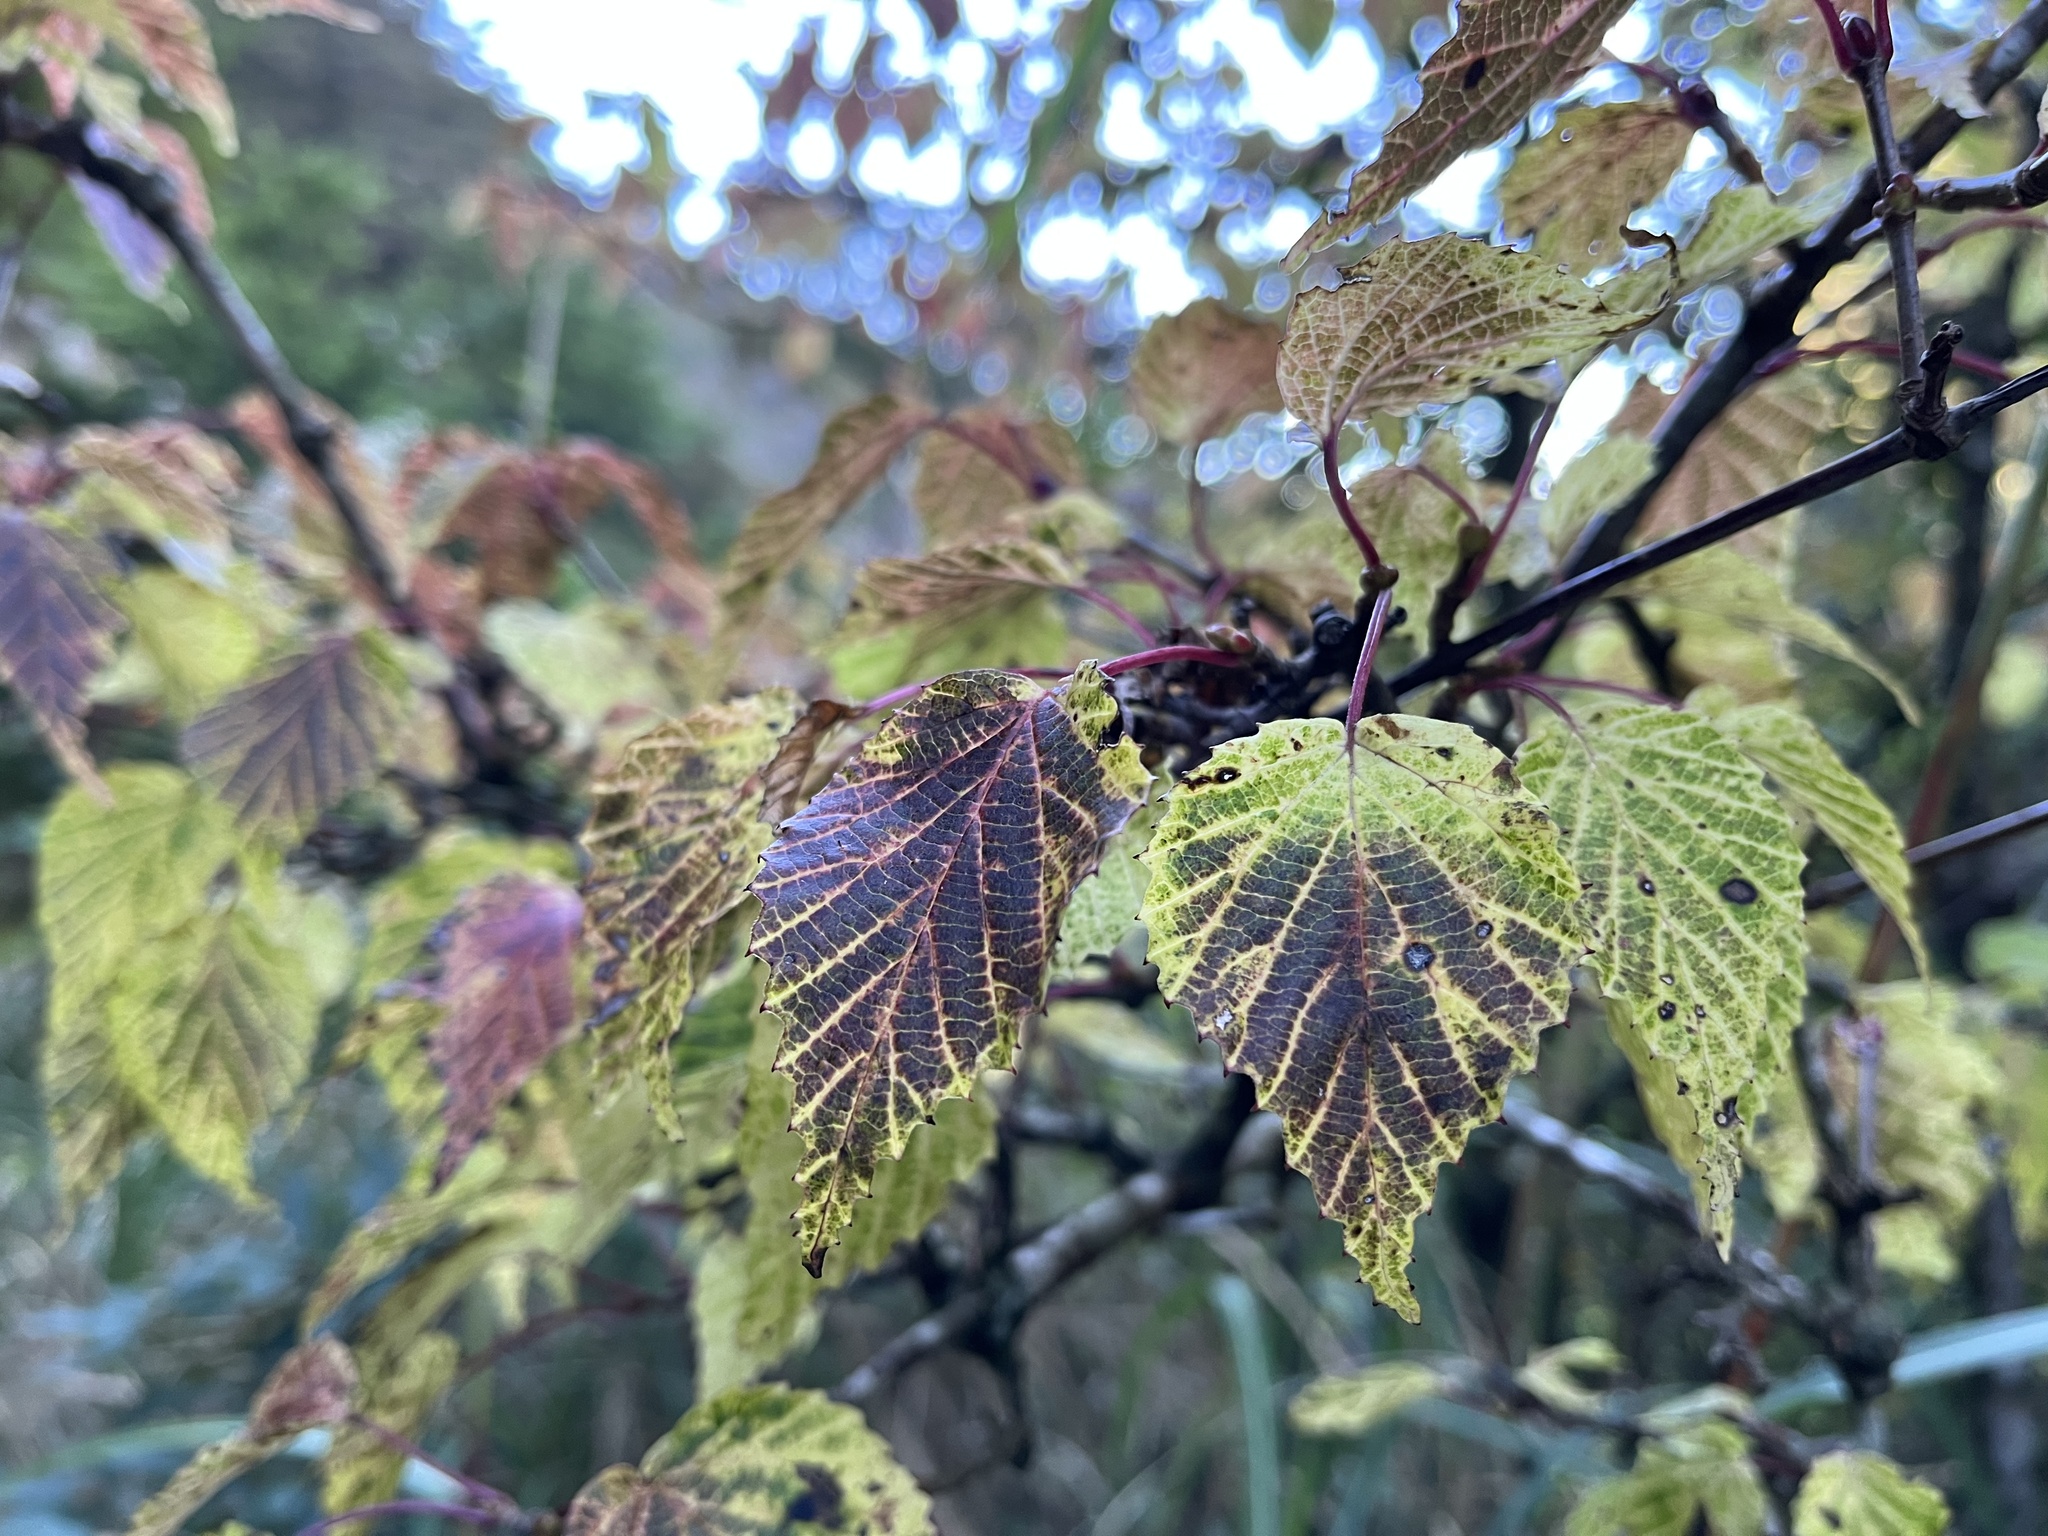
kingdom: Plantae
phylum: Tracheophyta
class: Magnoliopsida
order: Dipsacales
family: Viburnaceae
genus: Viburnum
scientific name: Viburnum betulifolium
